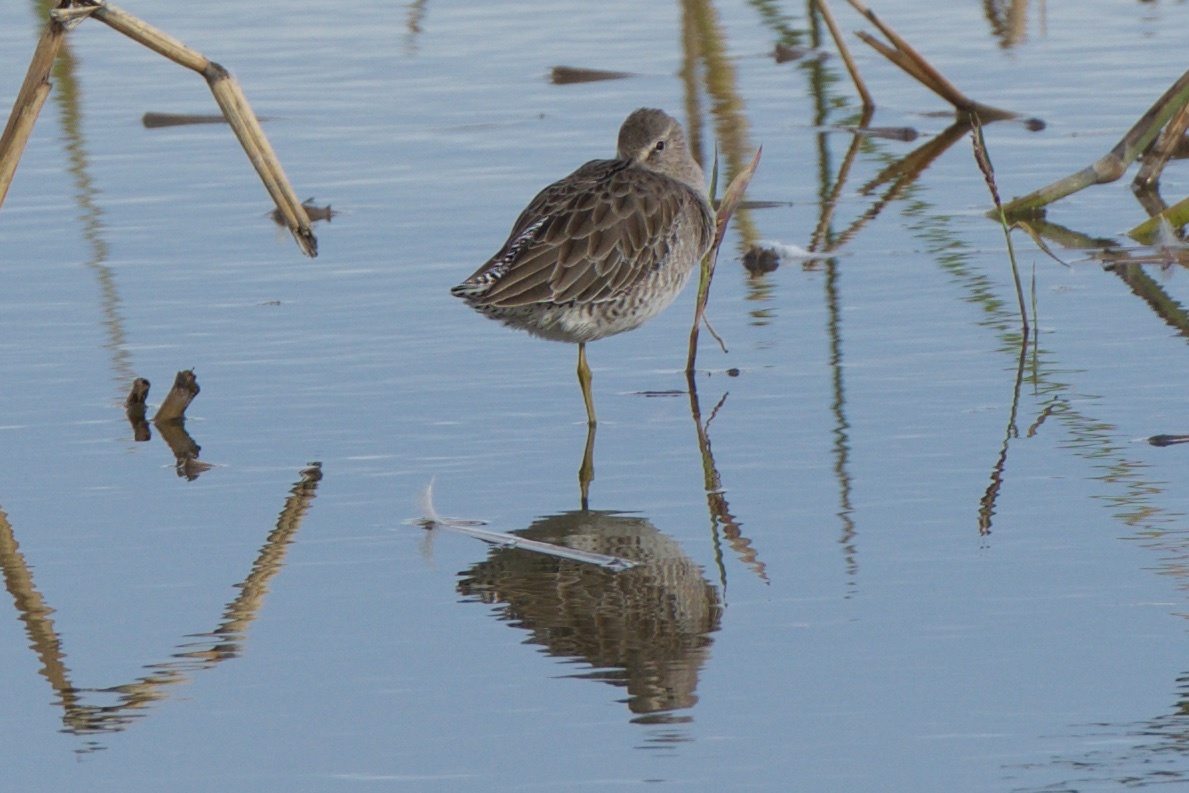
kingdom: Animalia
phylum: Chordata
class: Aves
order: Charadriiformes
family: Scolopacidae
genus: Limnodromus
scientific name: Limnodromus
